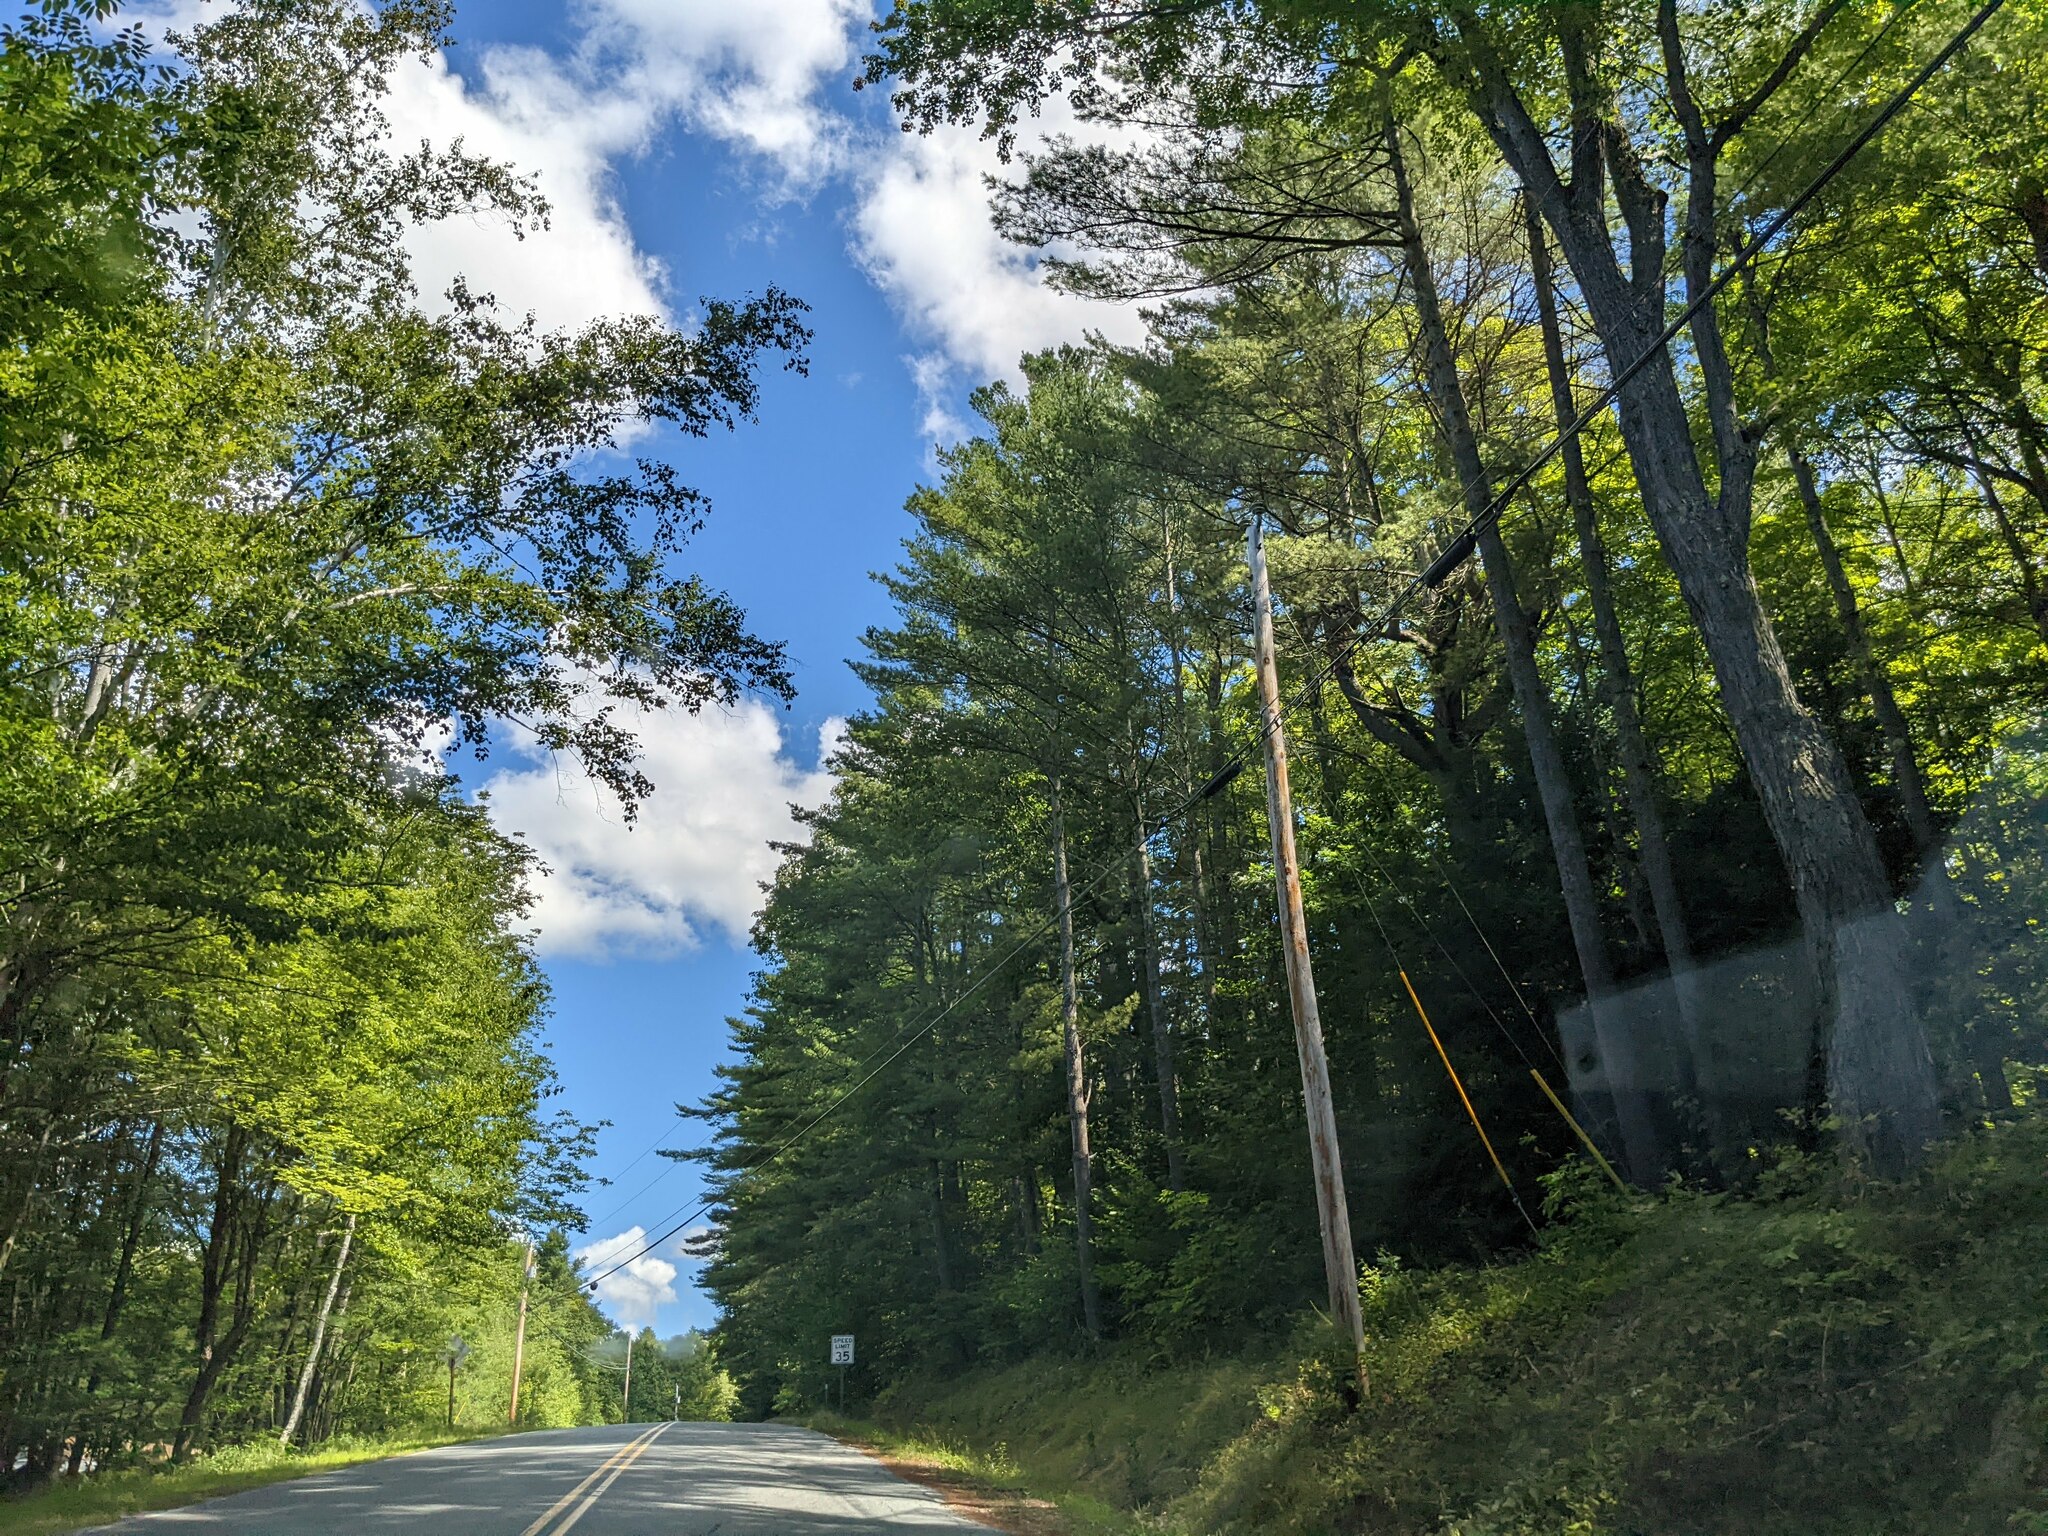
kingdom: Plantae
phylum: Tracheophyta
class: Pinopsida
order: Pinales
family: Pinaceae
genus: Pinus
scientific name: Pinus strobus
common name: Weymouth pine
